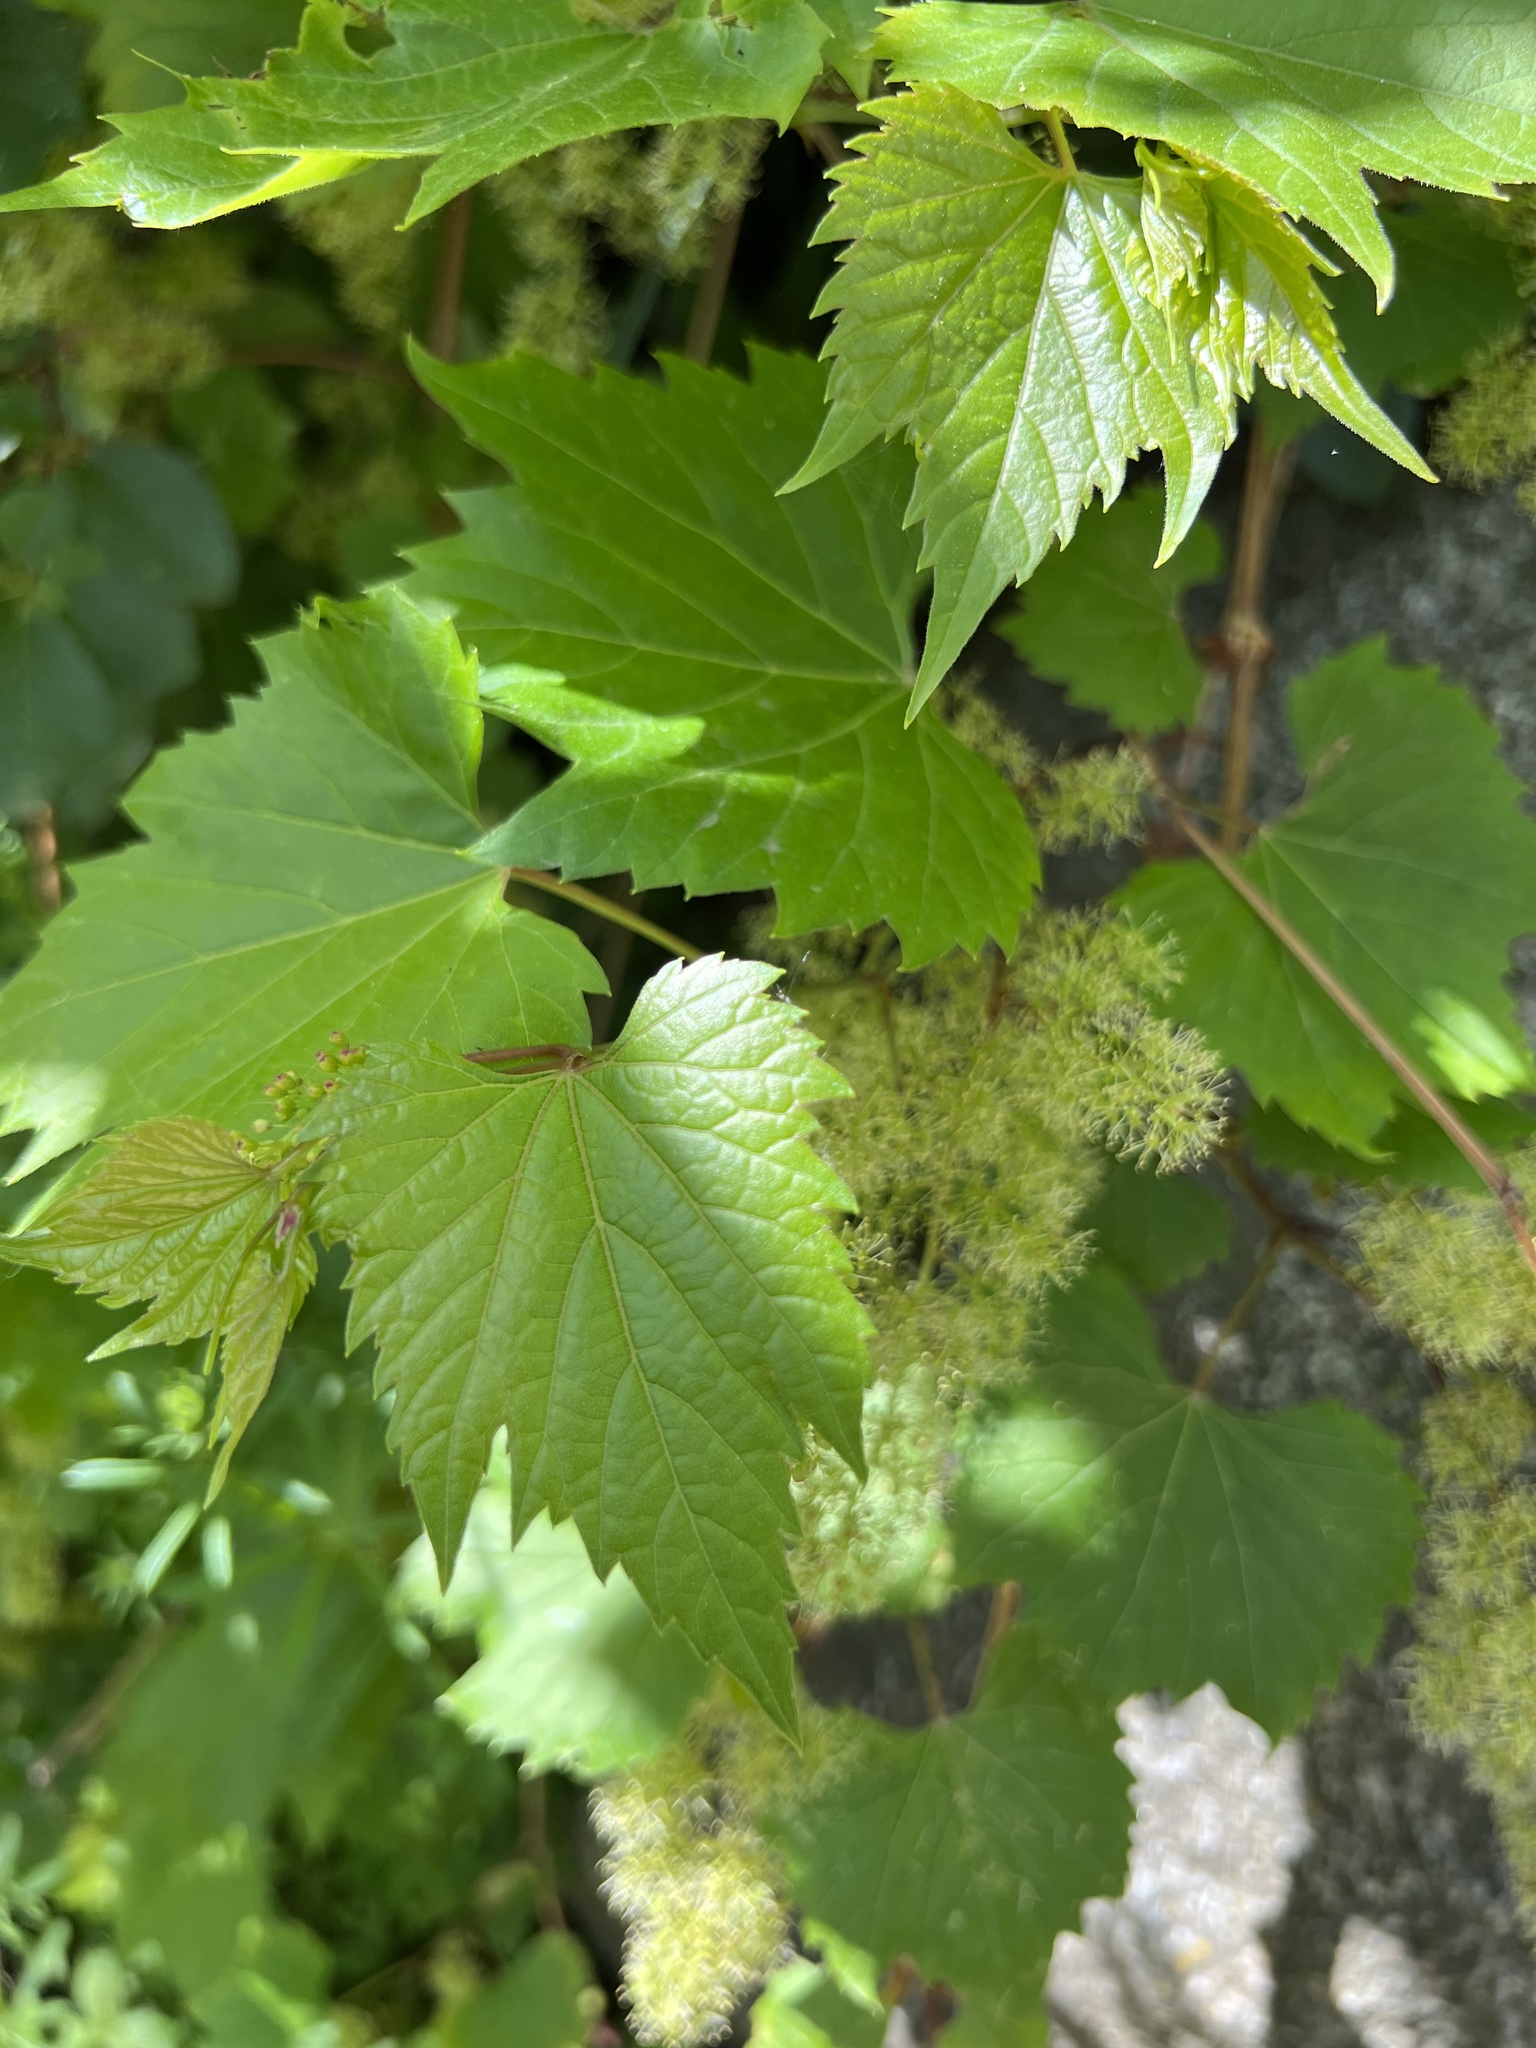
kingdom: Plantae
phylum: Tracheophyta
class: Magnoliopsida
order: Vitales
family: Vitaceae
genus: Vitis
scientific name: Vitis riparia
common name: Frost grape
